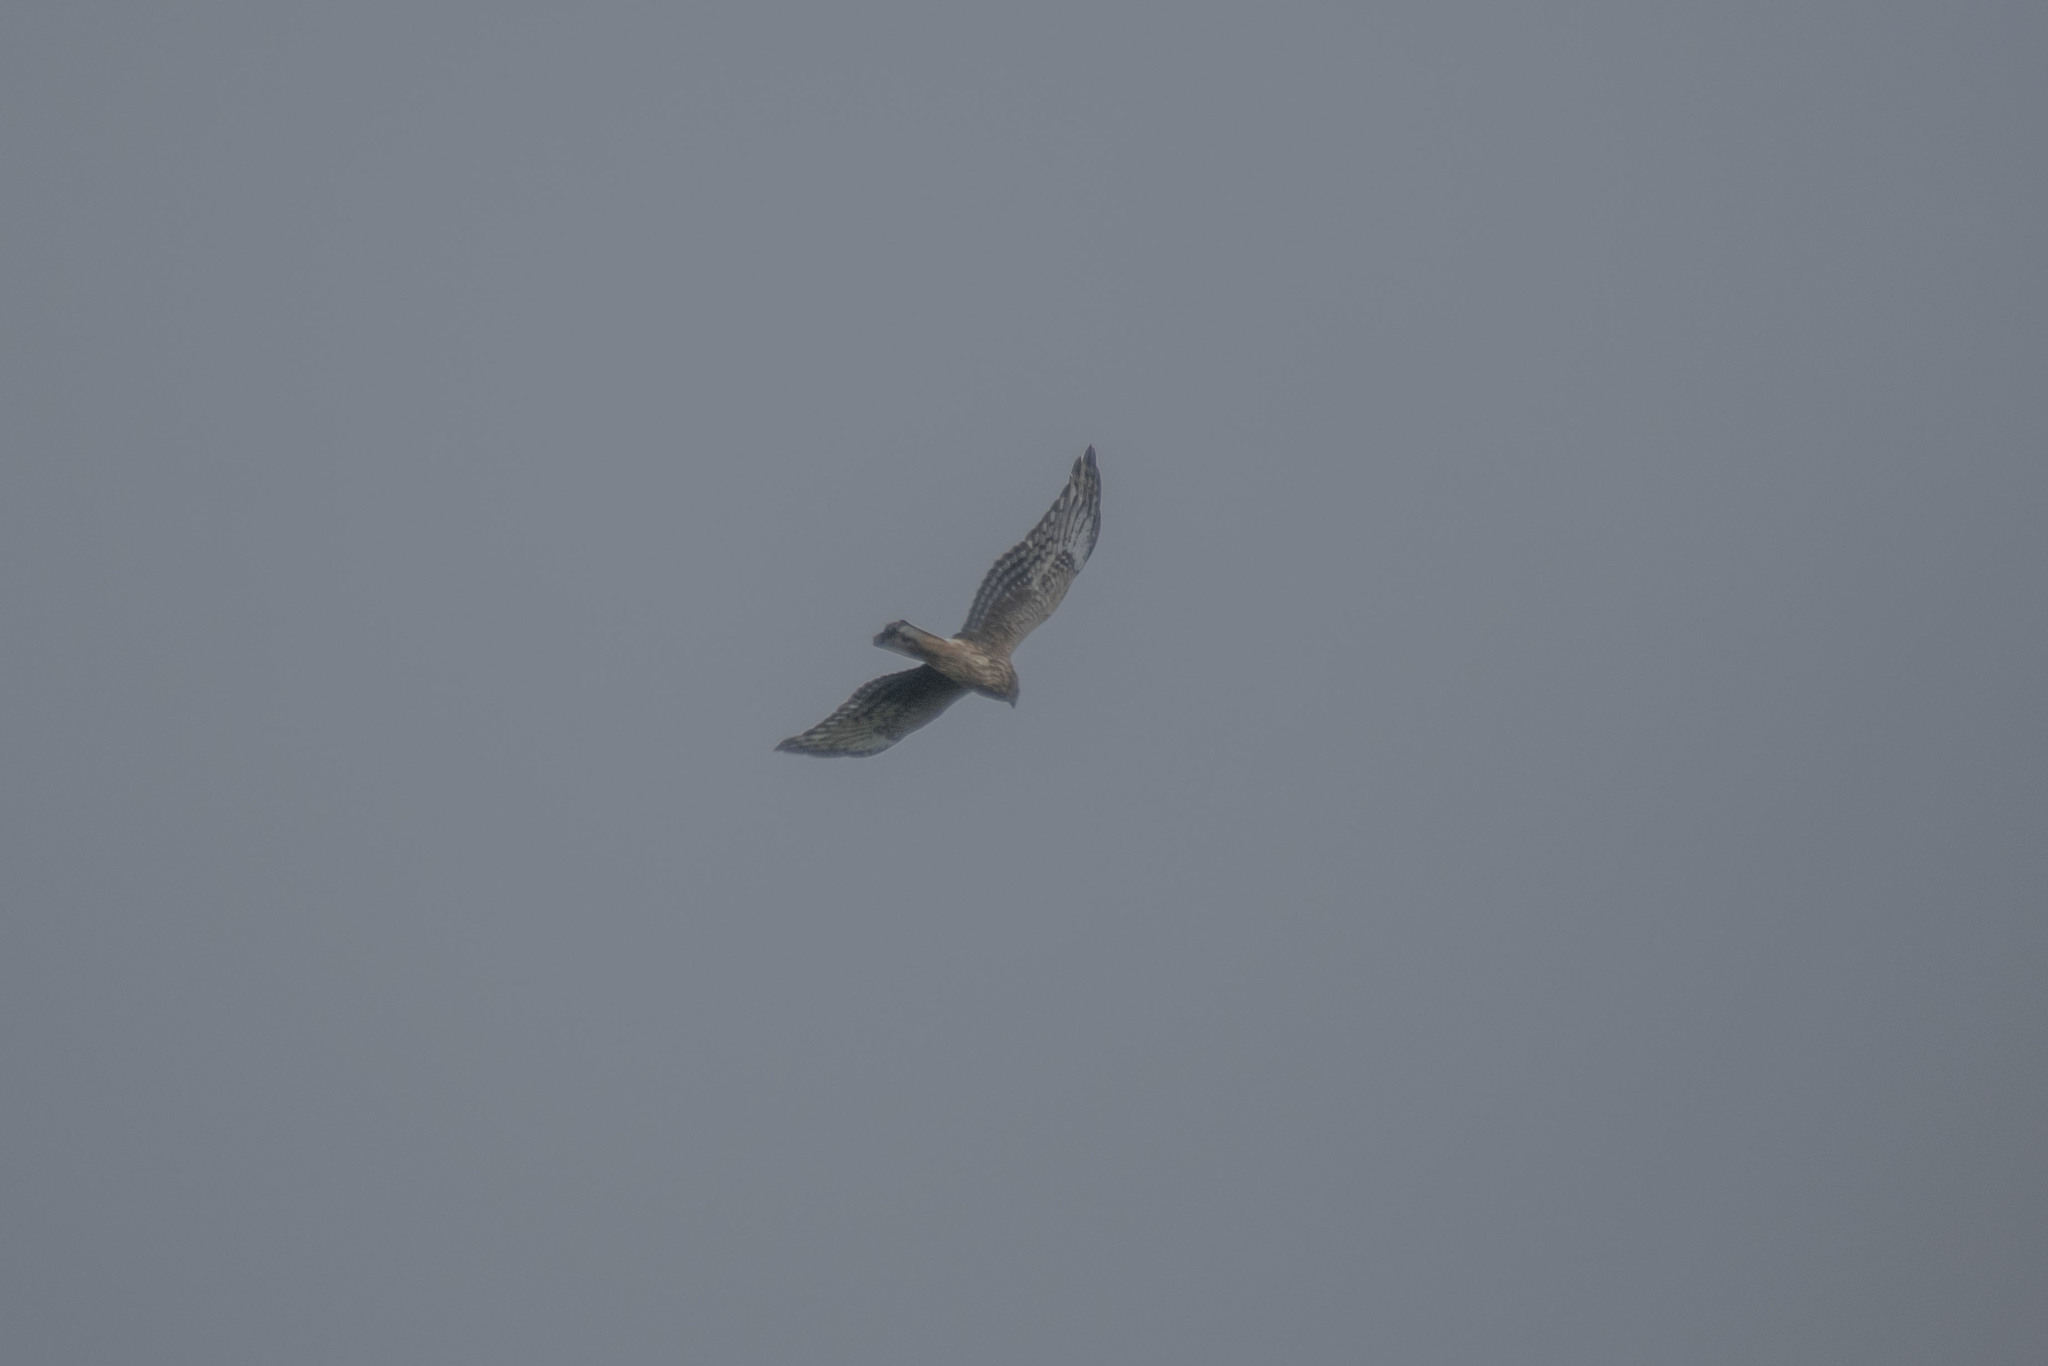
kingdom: Animalia
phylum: Chordata
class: Aves
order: Accipitriformes
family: Accipitridae
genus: Circus
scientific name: Circus cyaneus
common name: Hen harrier
